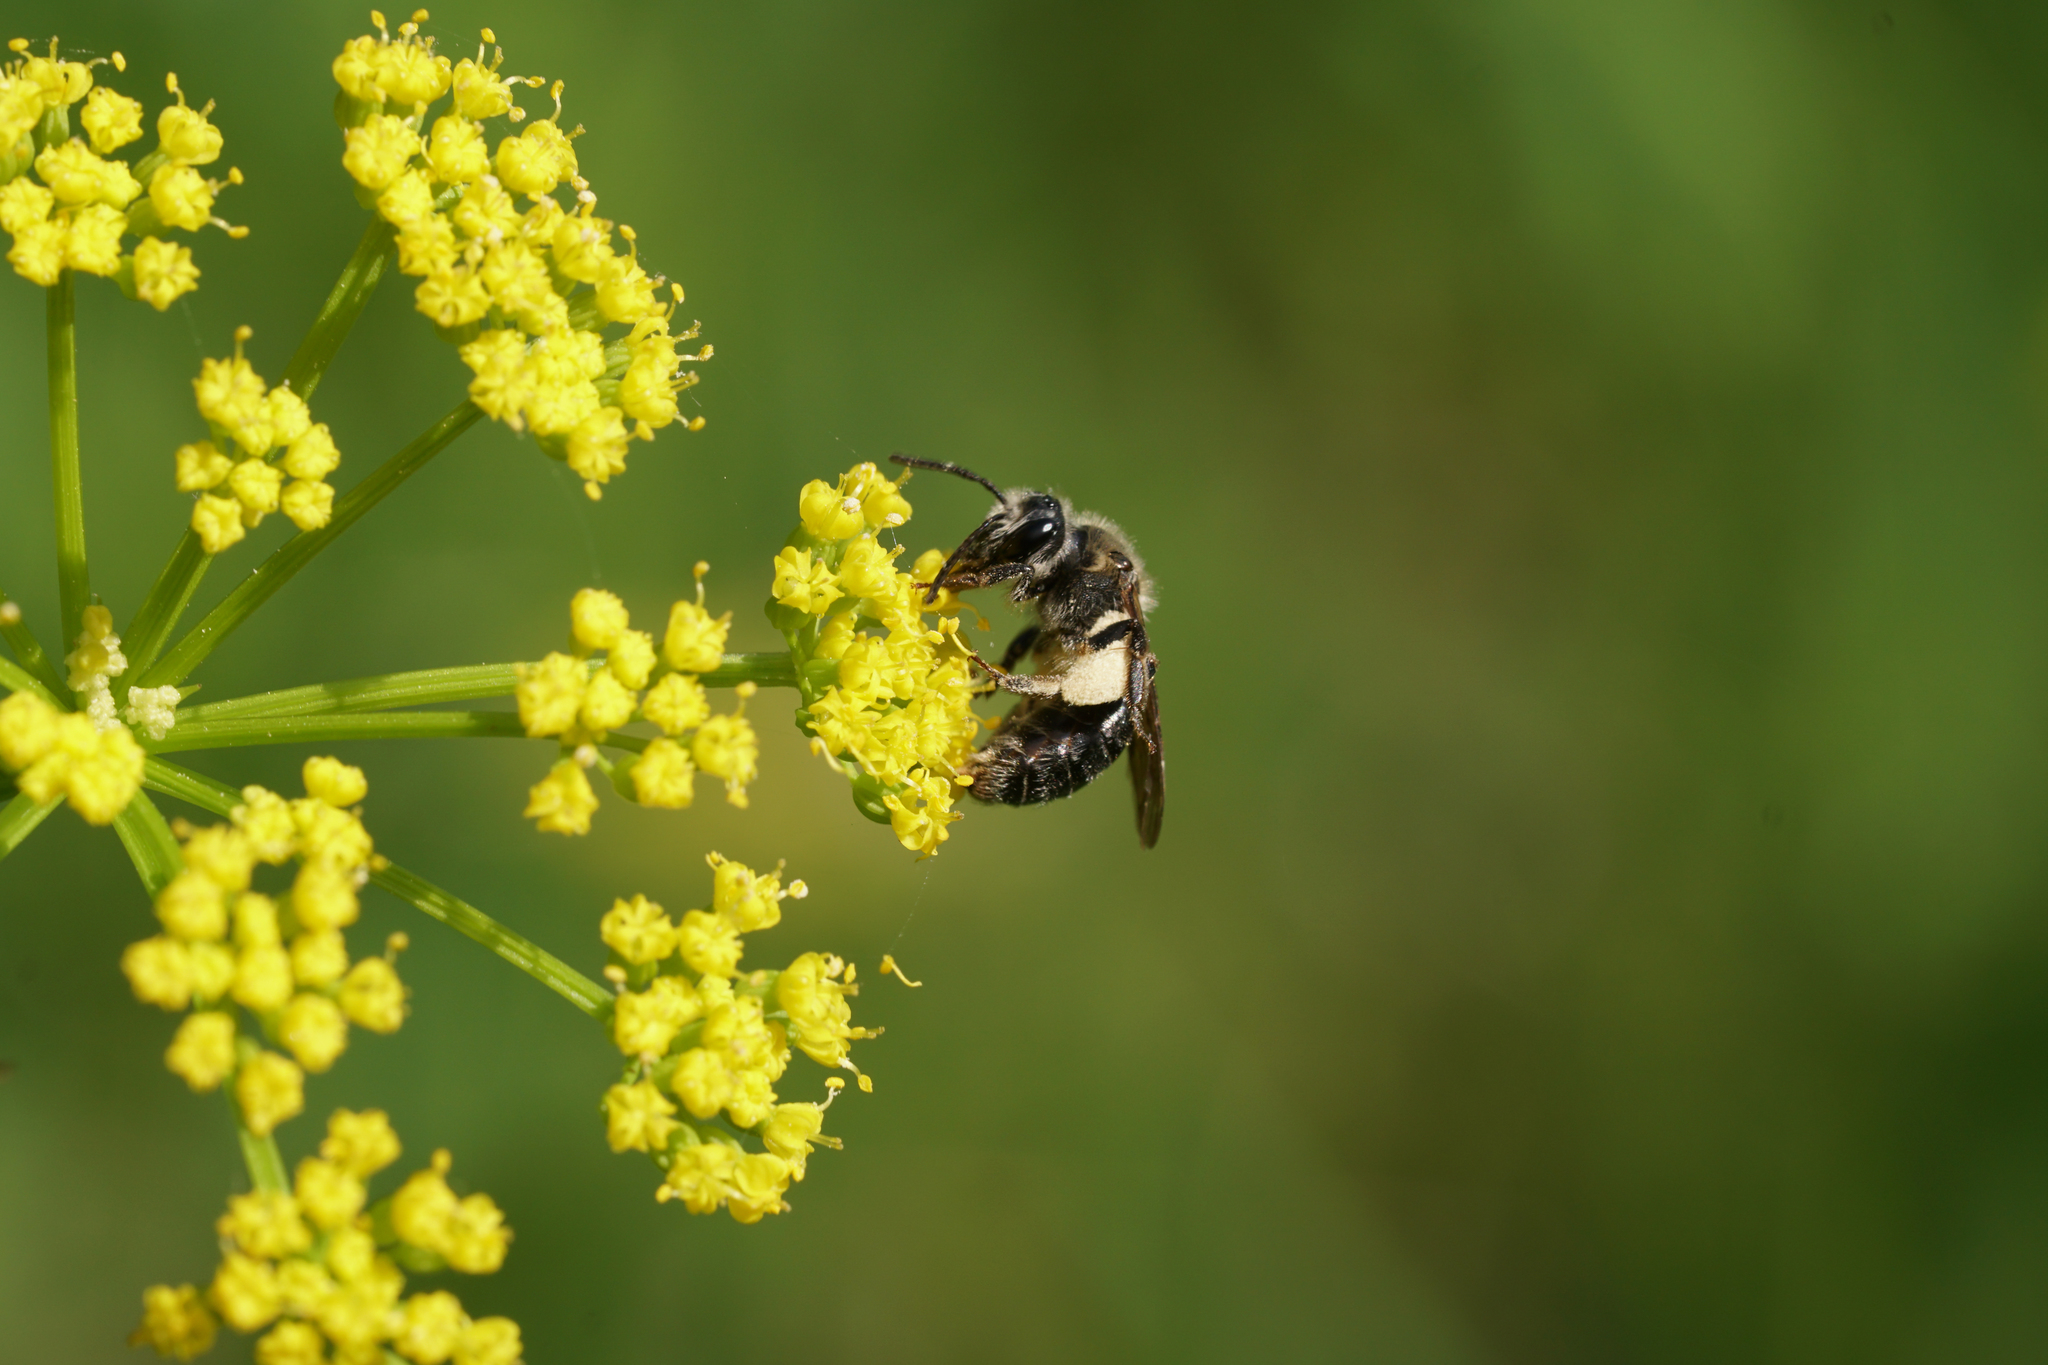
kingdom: Animalia
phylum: Arthropoda
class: Insecta
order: Hymenoptera
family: Andrenidae
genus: Andrena
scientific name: Andrena
